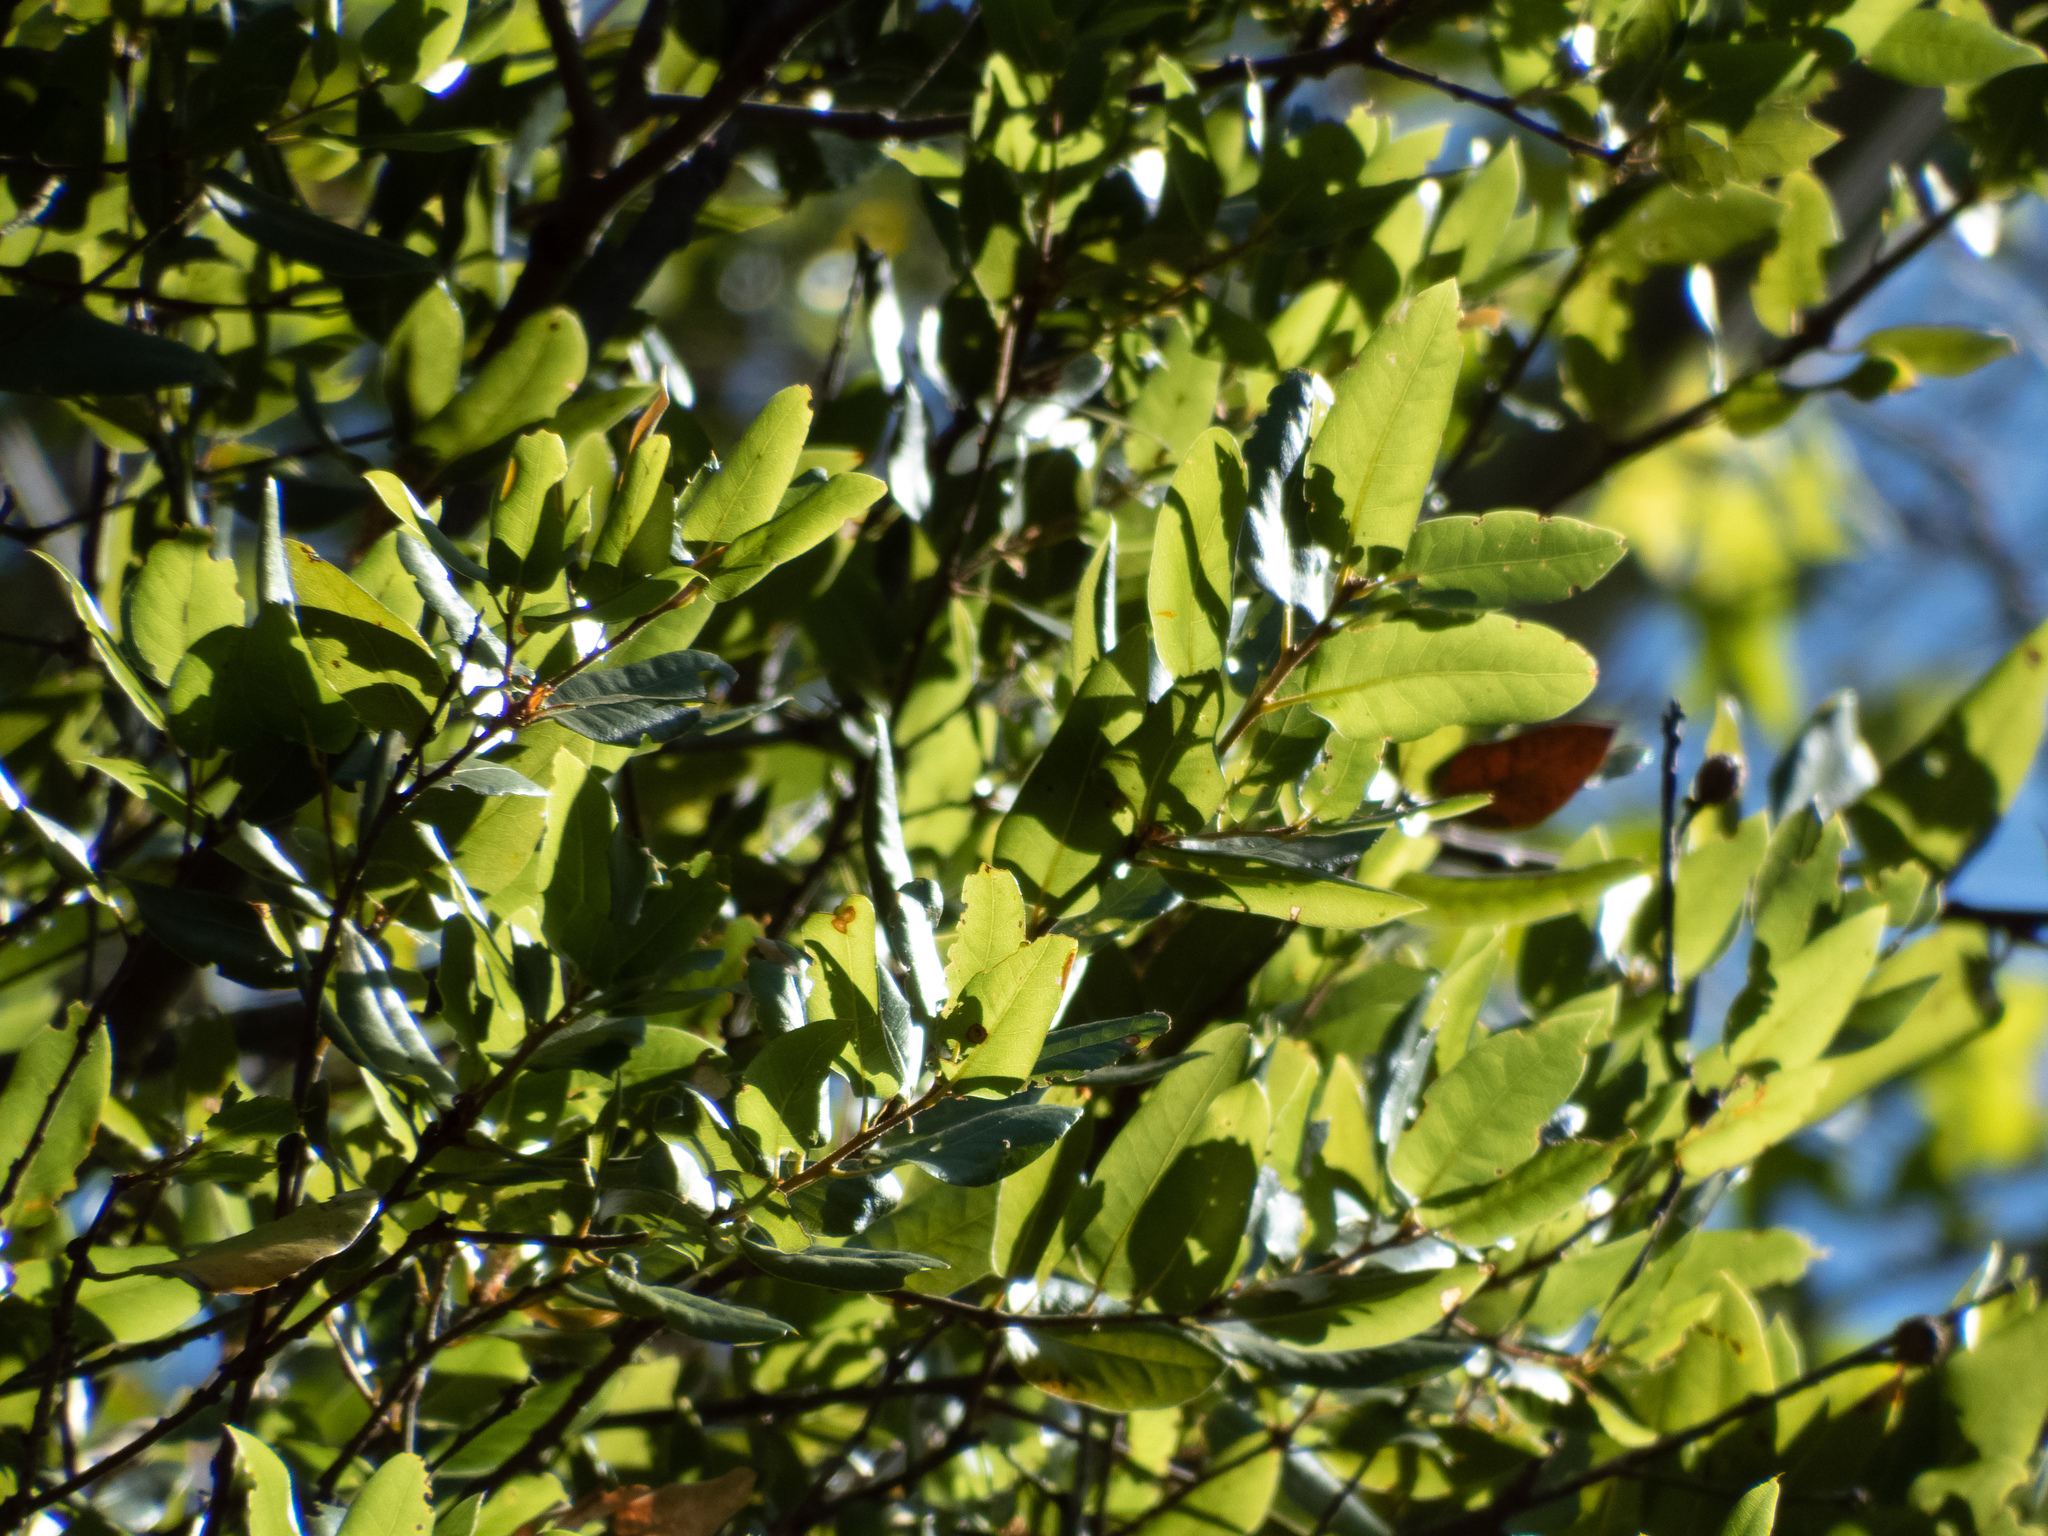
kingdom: Plantae
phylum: Tracheophyta
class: Magnoliopsida
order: Fagales
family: Fagaceae
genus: Quercus
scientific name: Quercus agrifolia
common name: California live oak
